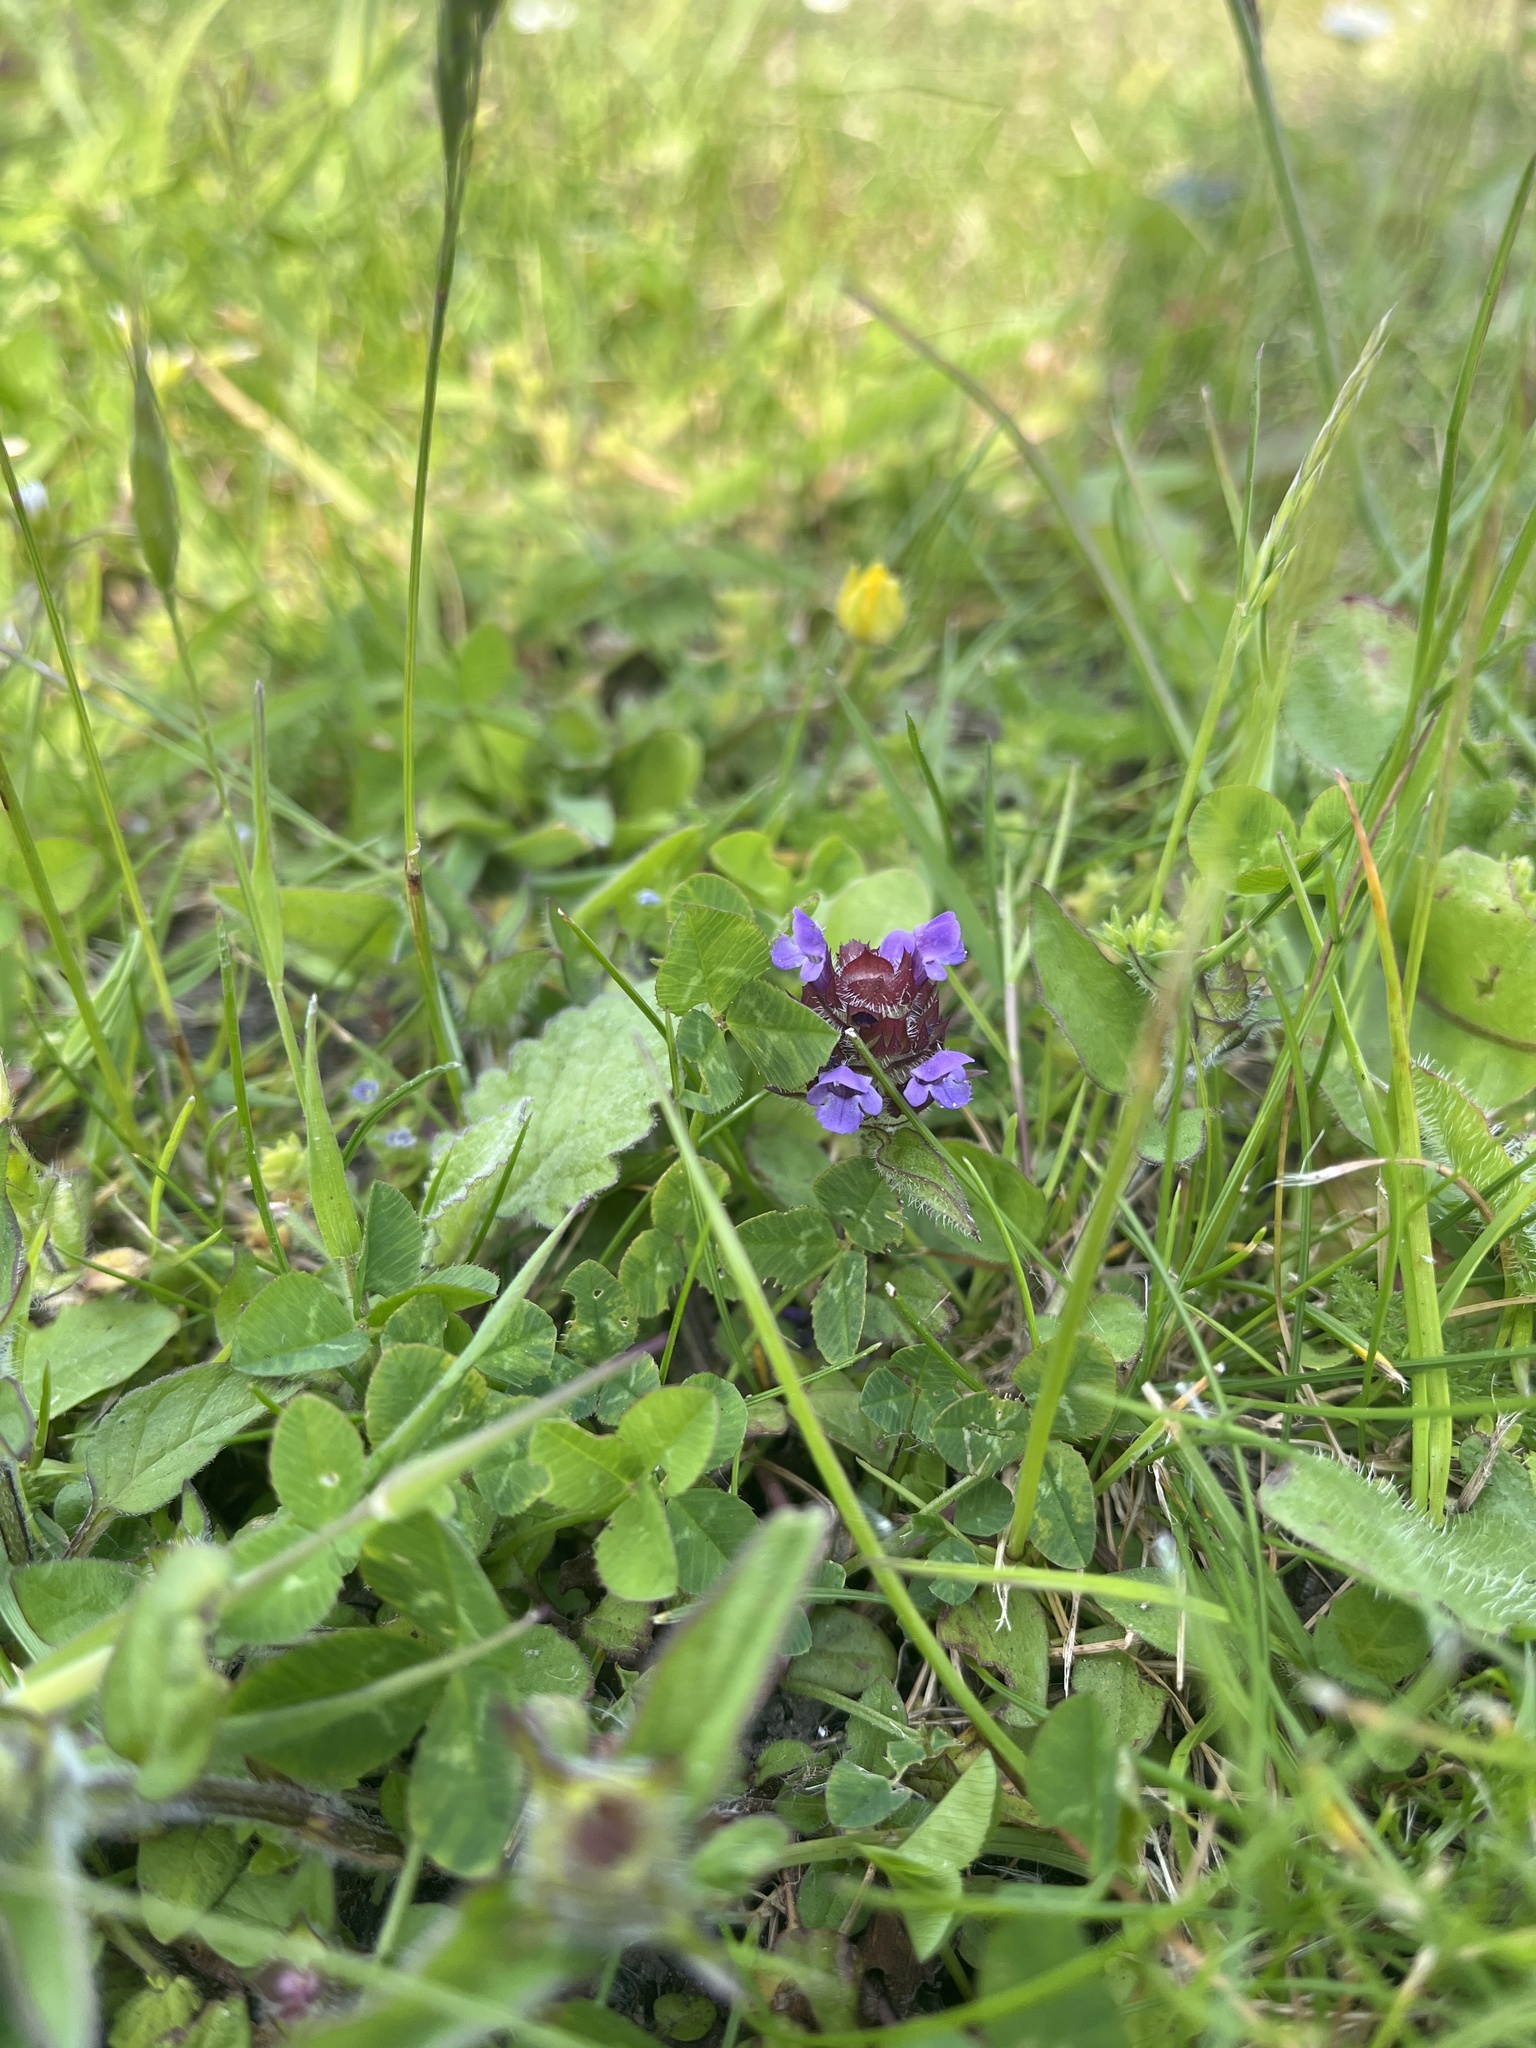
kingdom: Plantae
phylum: Tracheophyta
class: Magnoliopsida
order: Lamiales
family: Lamiaceae
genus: Prunella
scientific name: Prunella vulgaris
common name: Heal-all
